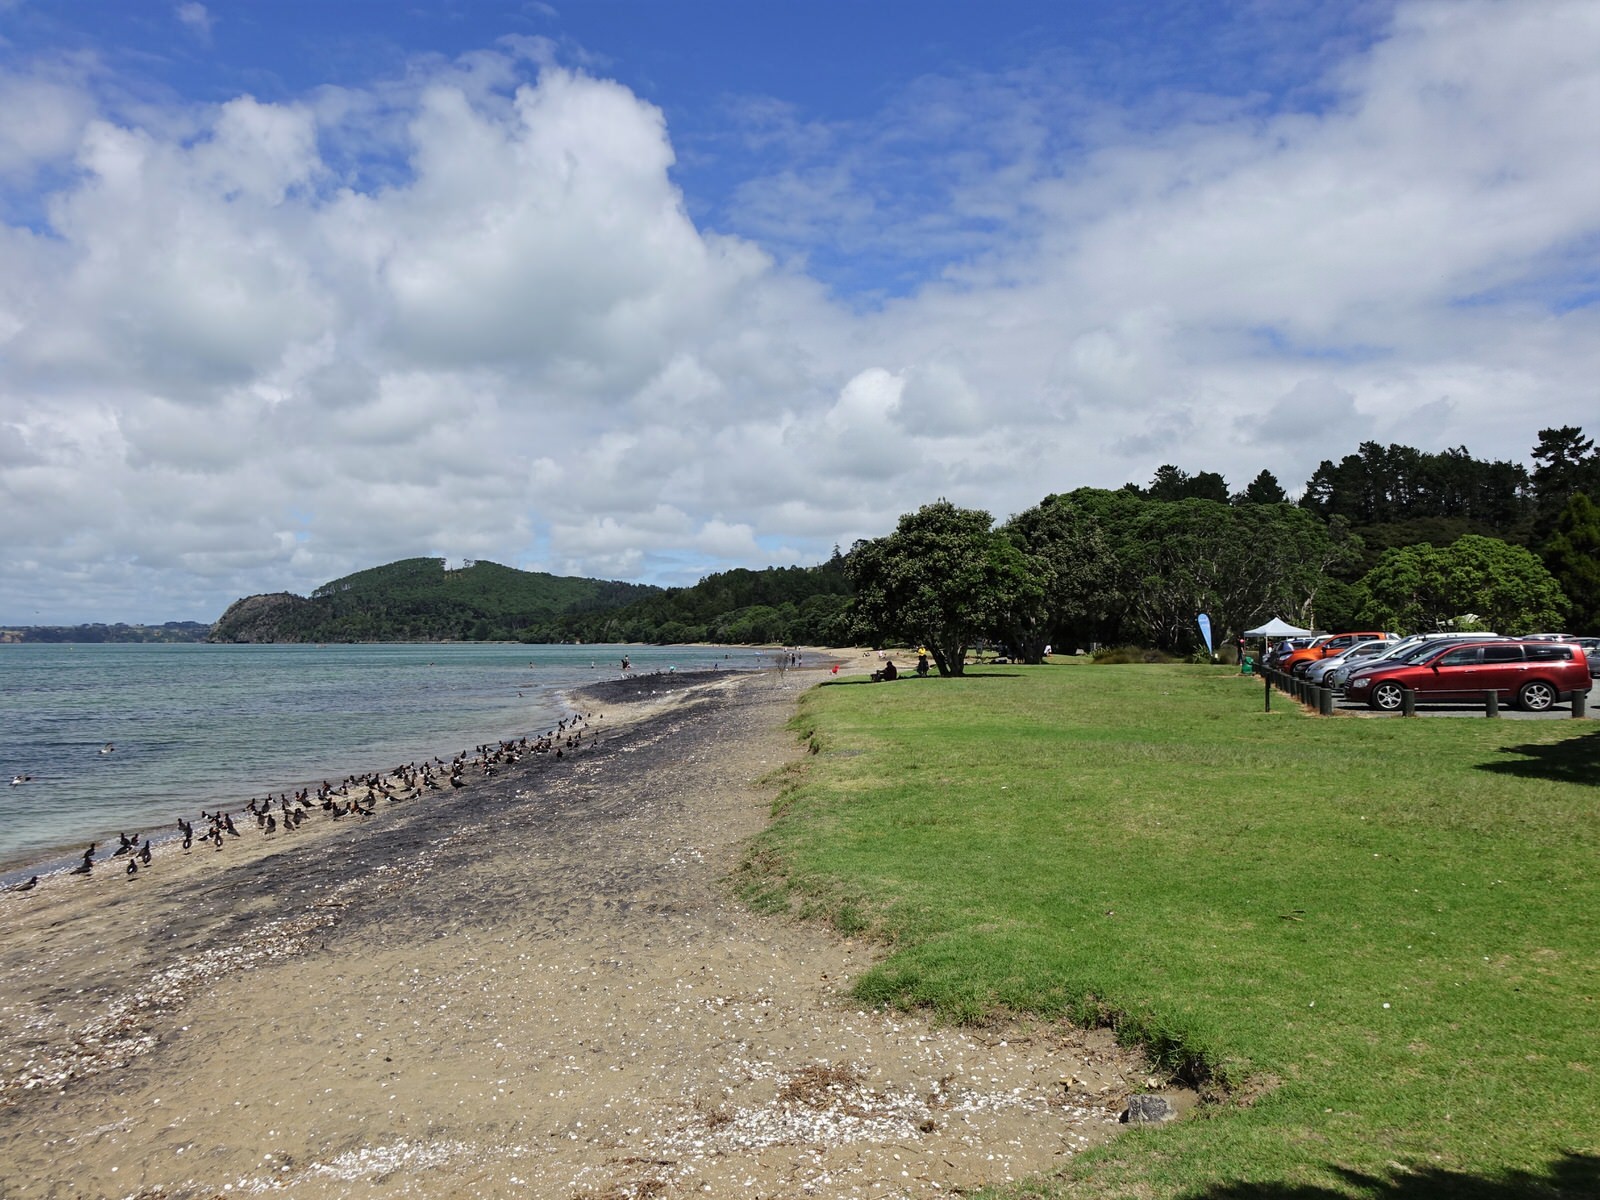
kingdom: Animalia
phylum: Chordata
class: Aves
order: Charadriiformes
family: Haematopodidae
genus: Haematopus
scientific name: Haematopus finschi
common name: South island oystercatcher
